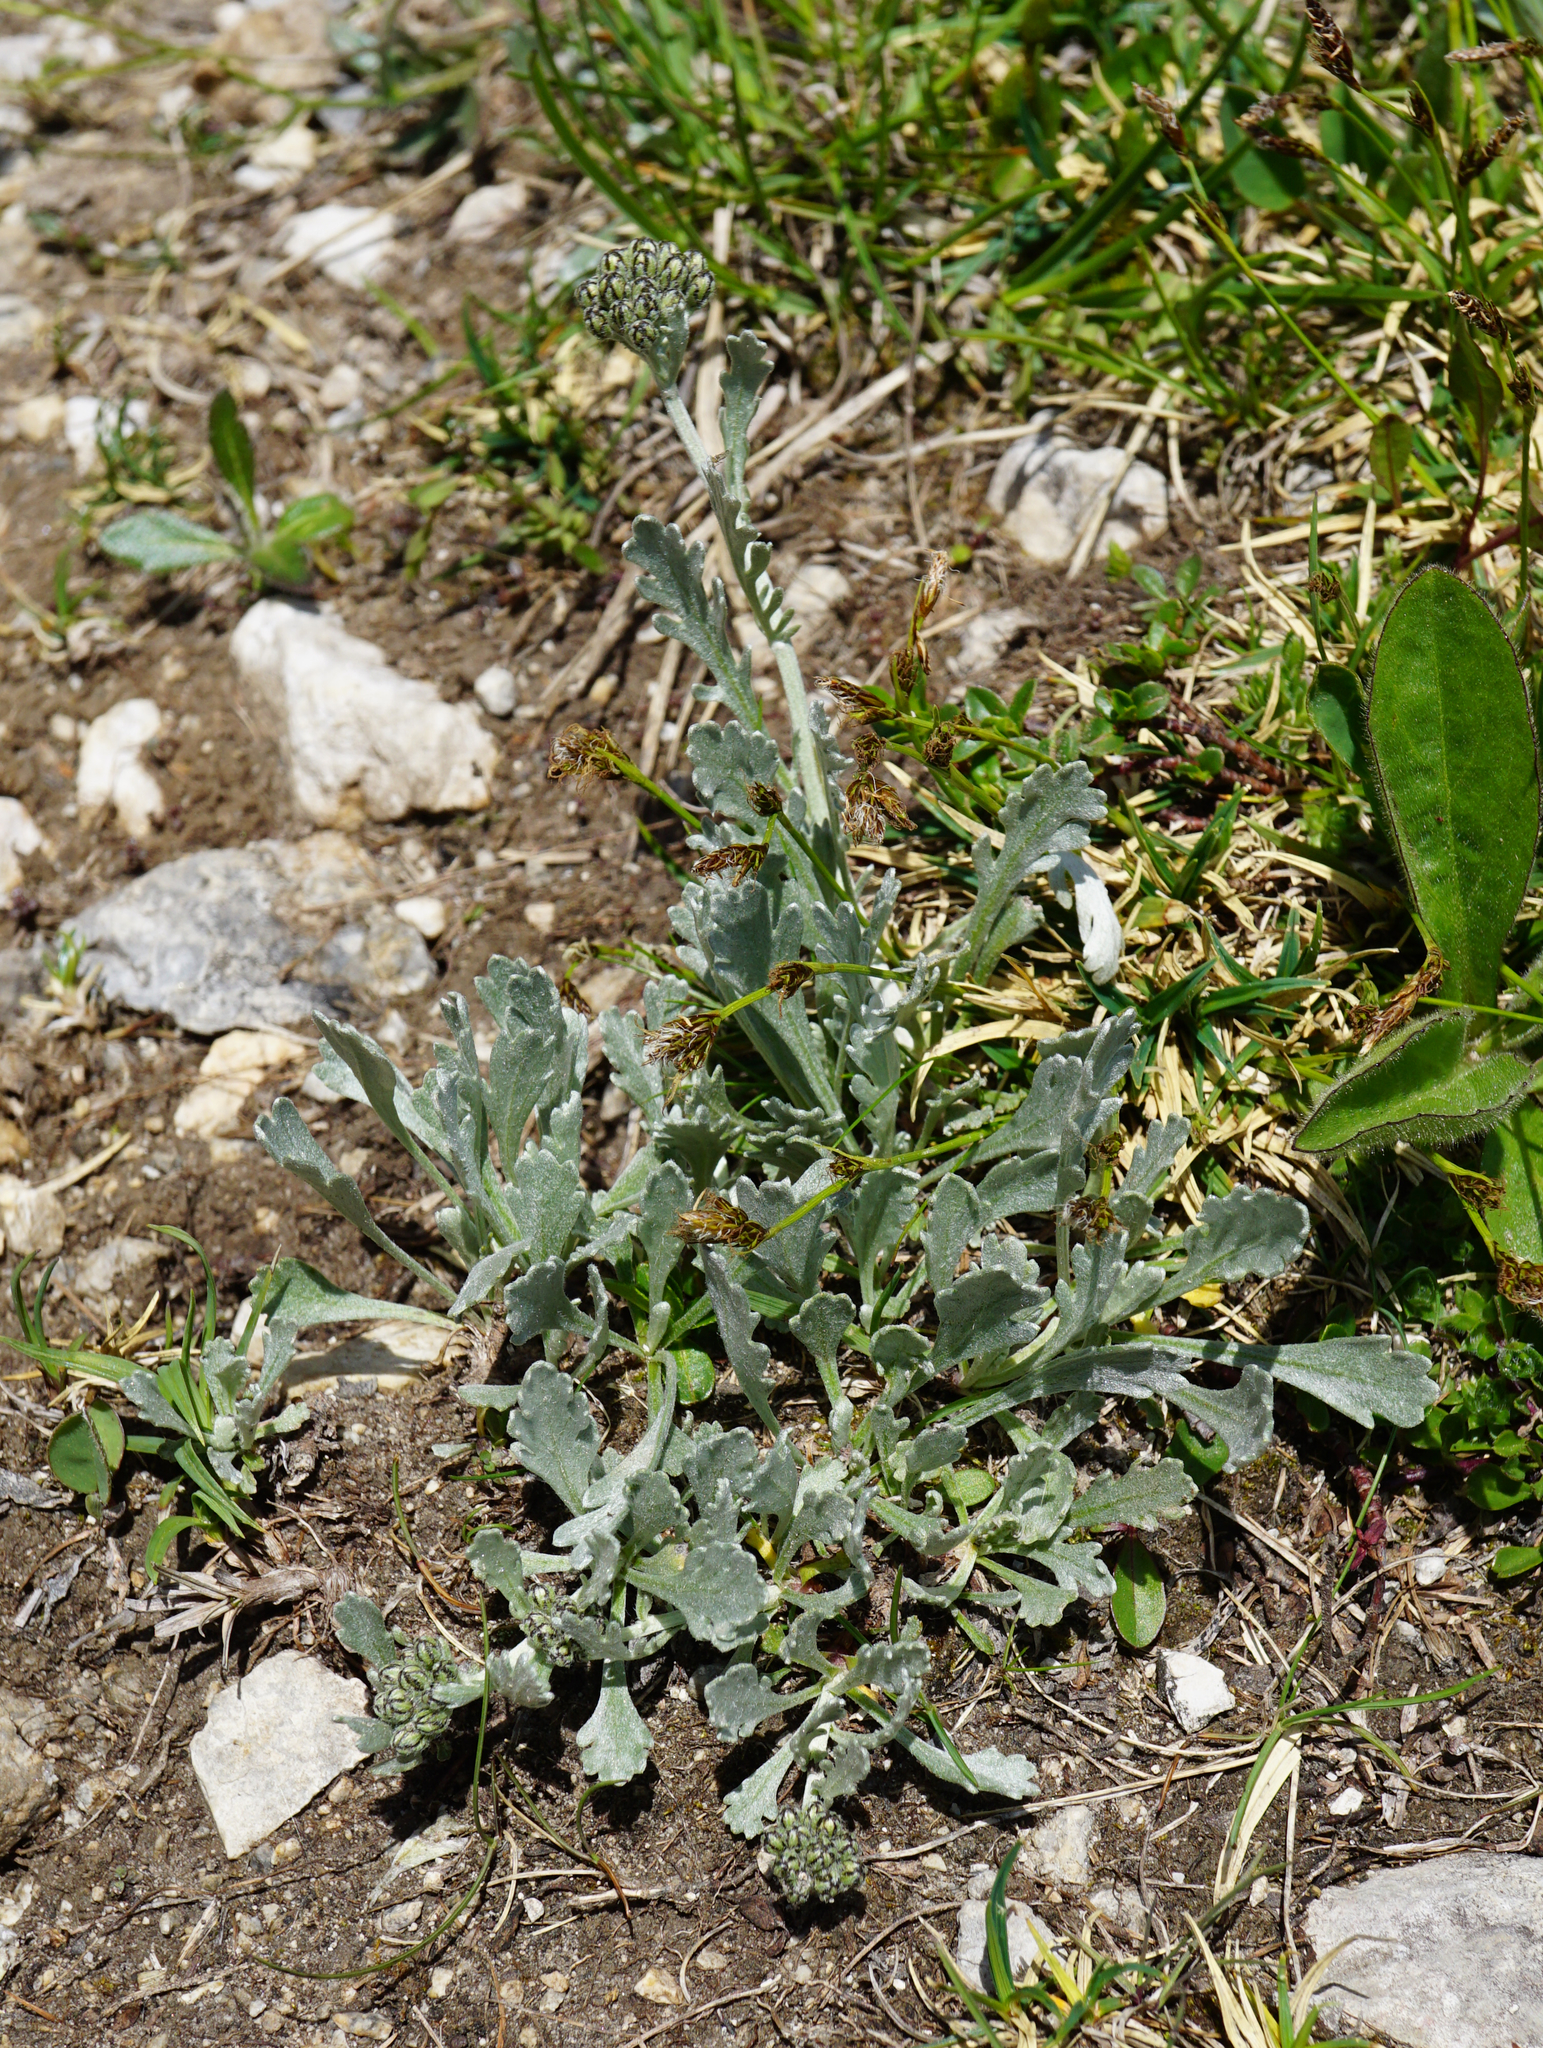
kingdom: Plantae
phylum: Tracheophyta
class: Magnoliopsida
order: Asterales
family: Asteraceae
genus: Achillea
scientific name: Achillea clavennae
